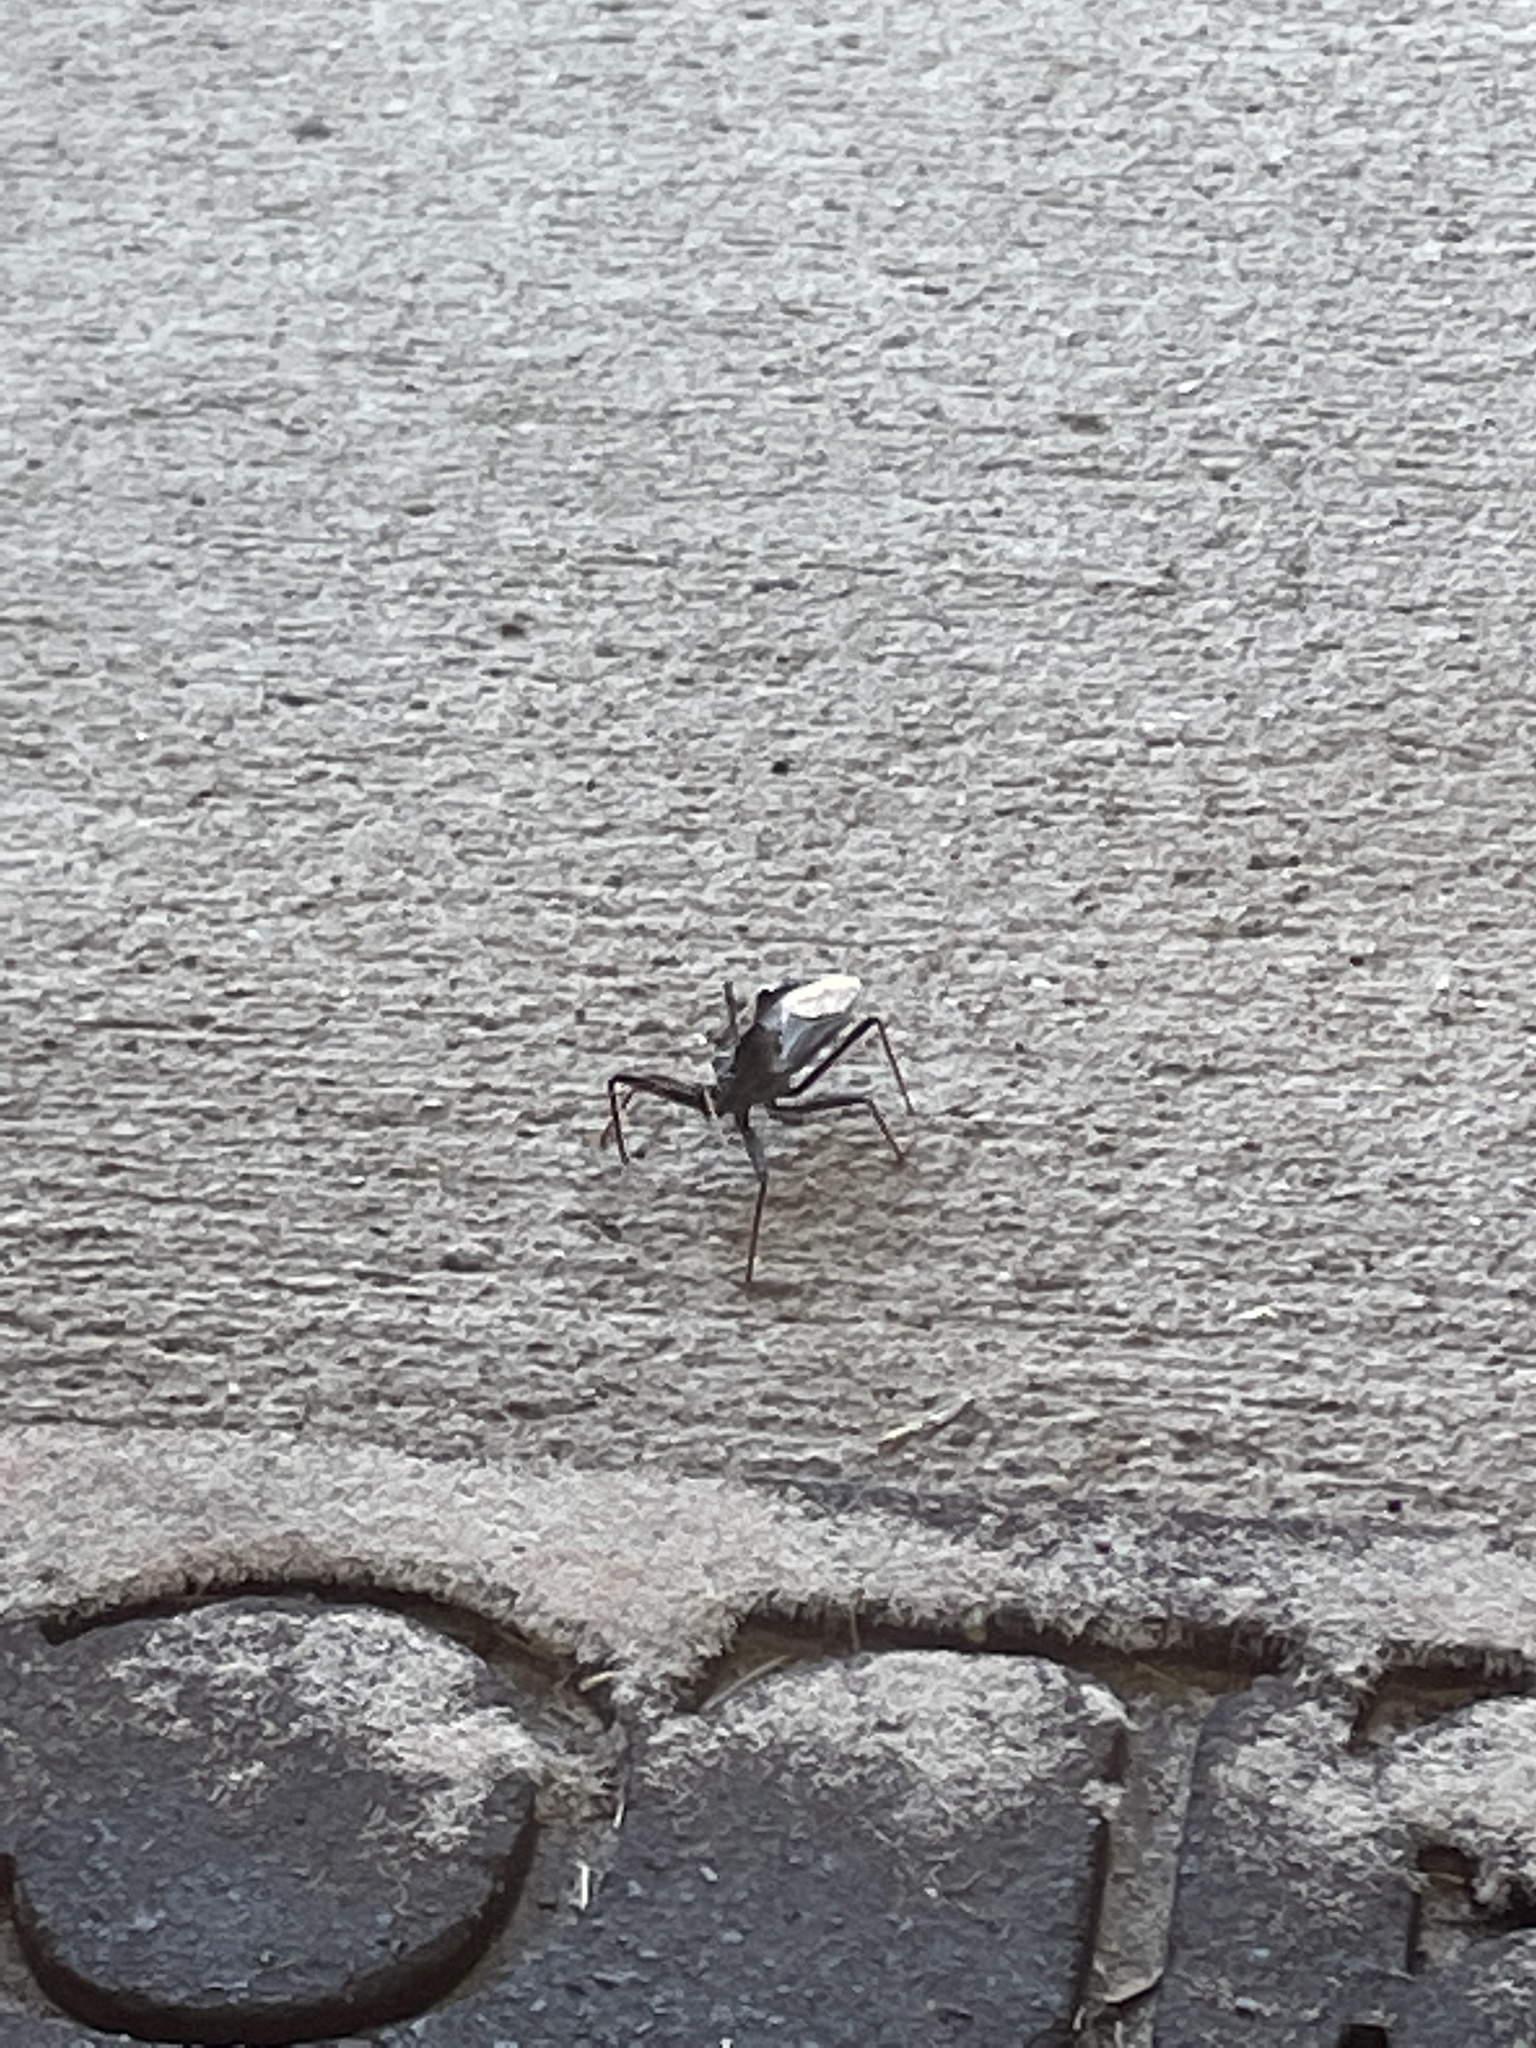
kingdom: Animalia
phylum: Arthropoda
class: Insecta
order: Hemiptera
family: Reduviidae
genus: Arilus
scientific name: Arilus cristatus
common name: North american wheel bug
